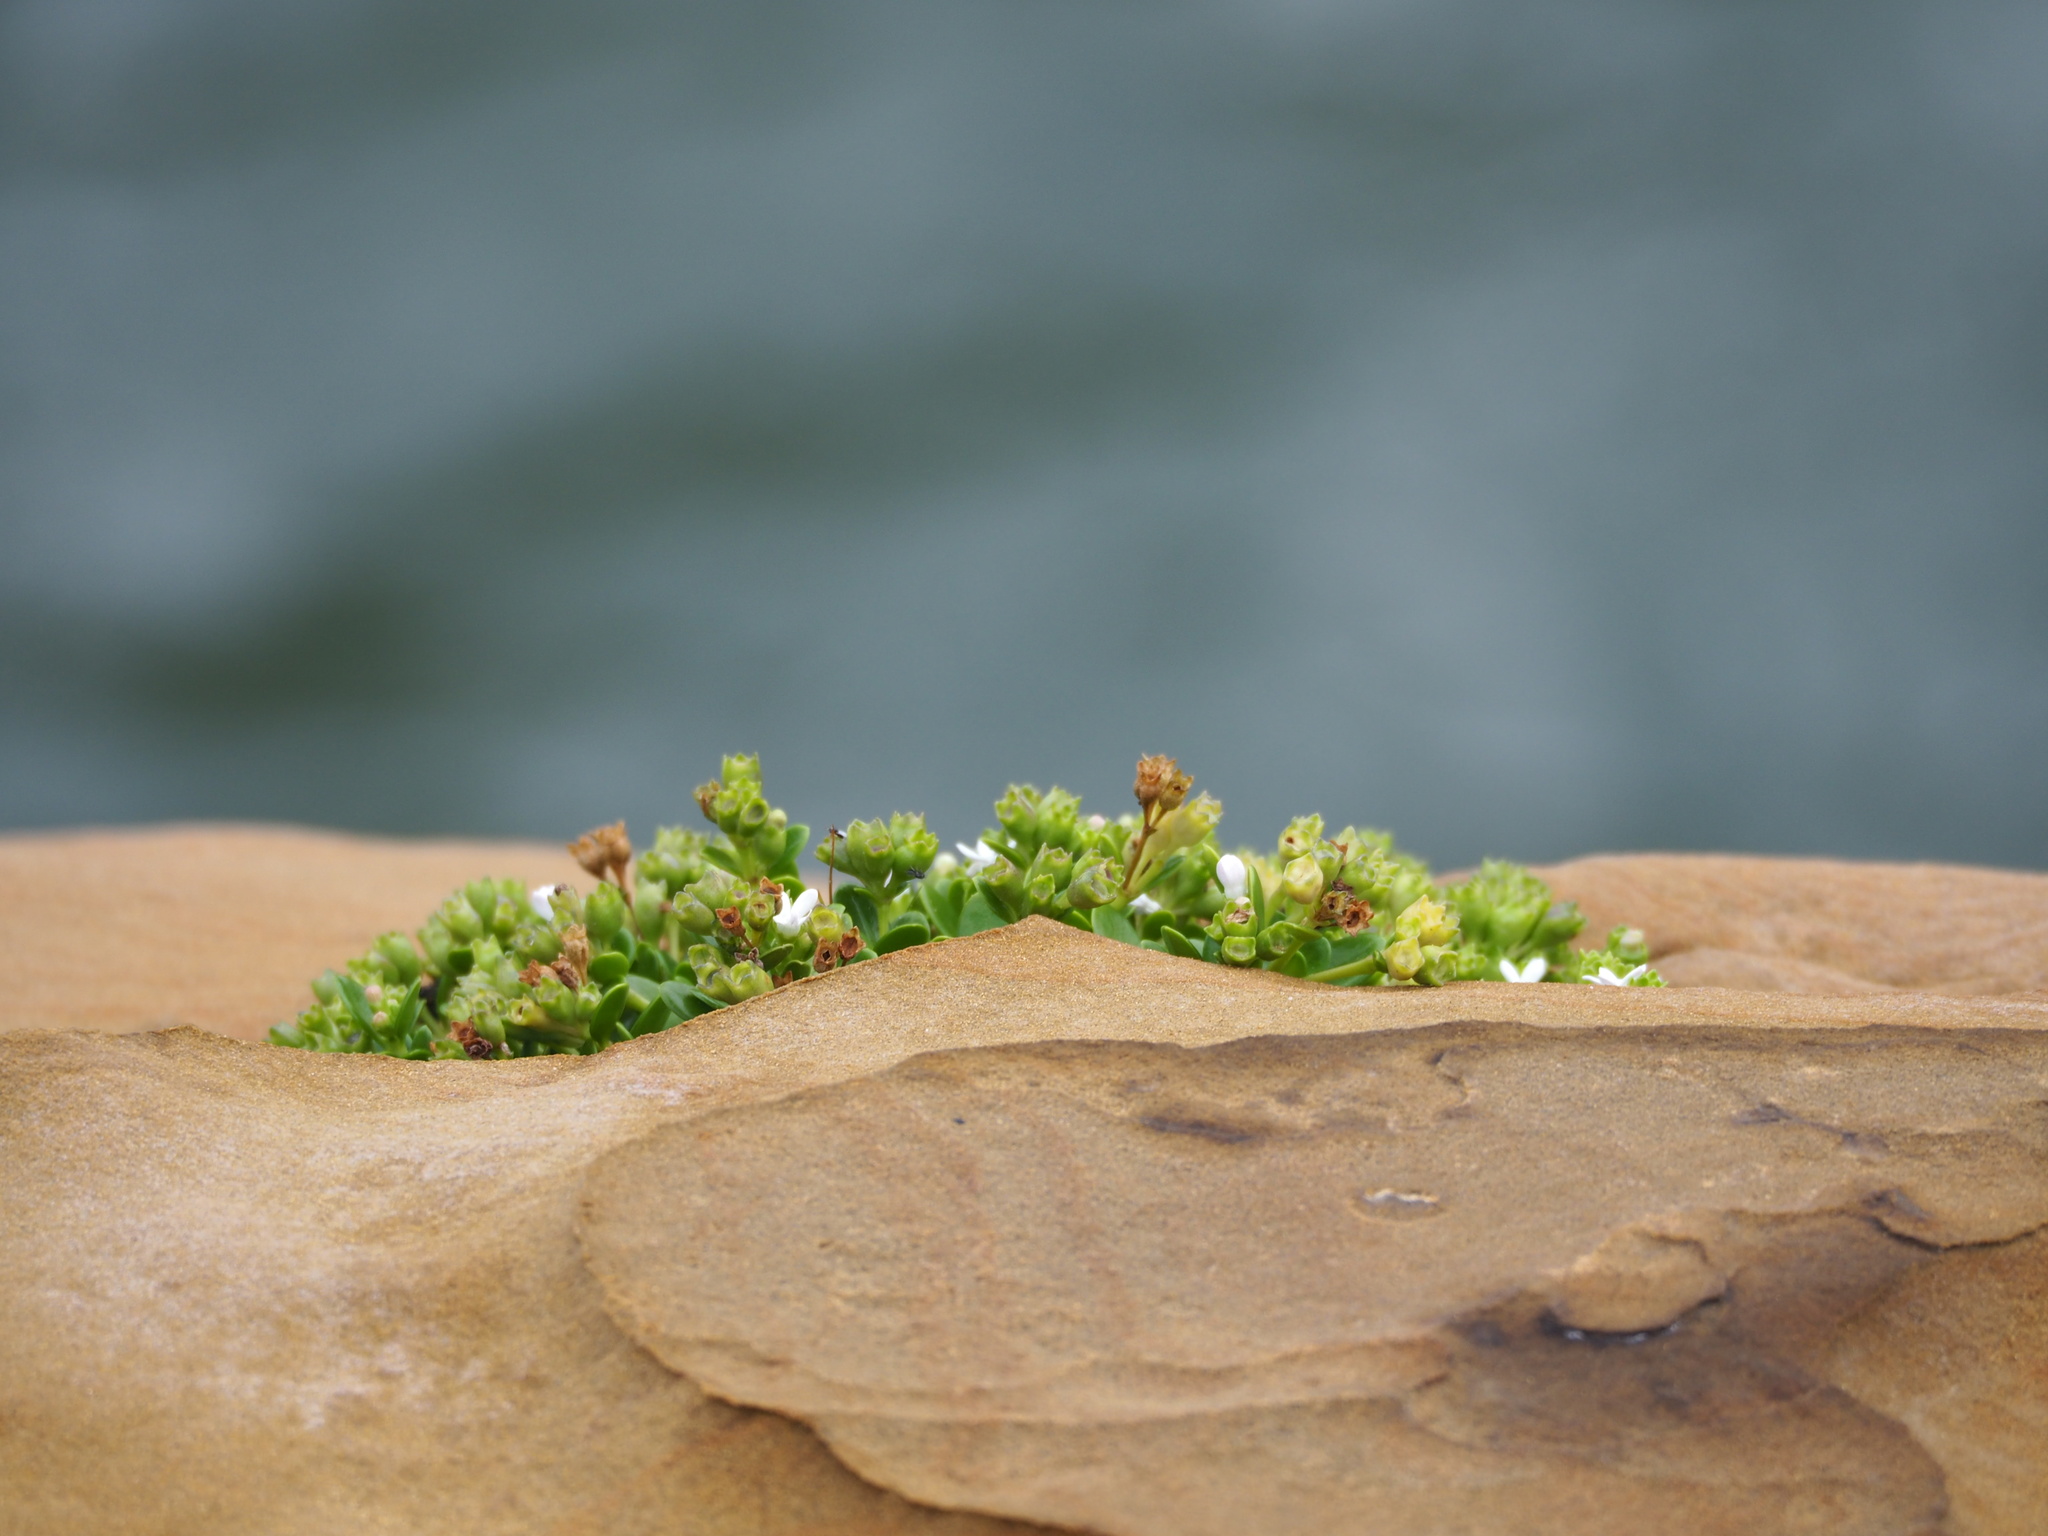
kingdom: Plantae
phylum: Tracheophyta
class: Magnoliopsida
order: Gentianales
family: Rubiaceae
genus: Leptopetalum
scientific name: Leptopetalum strigulosum
